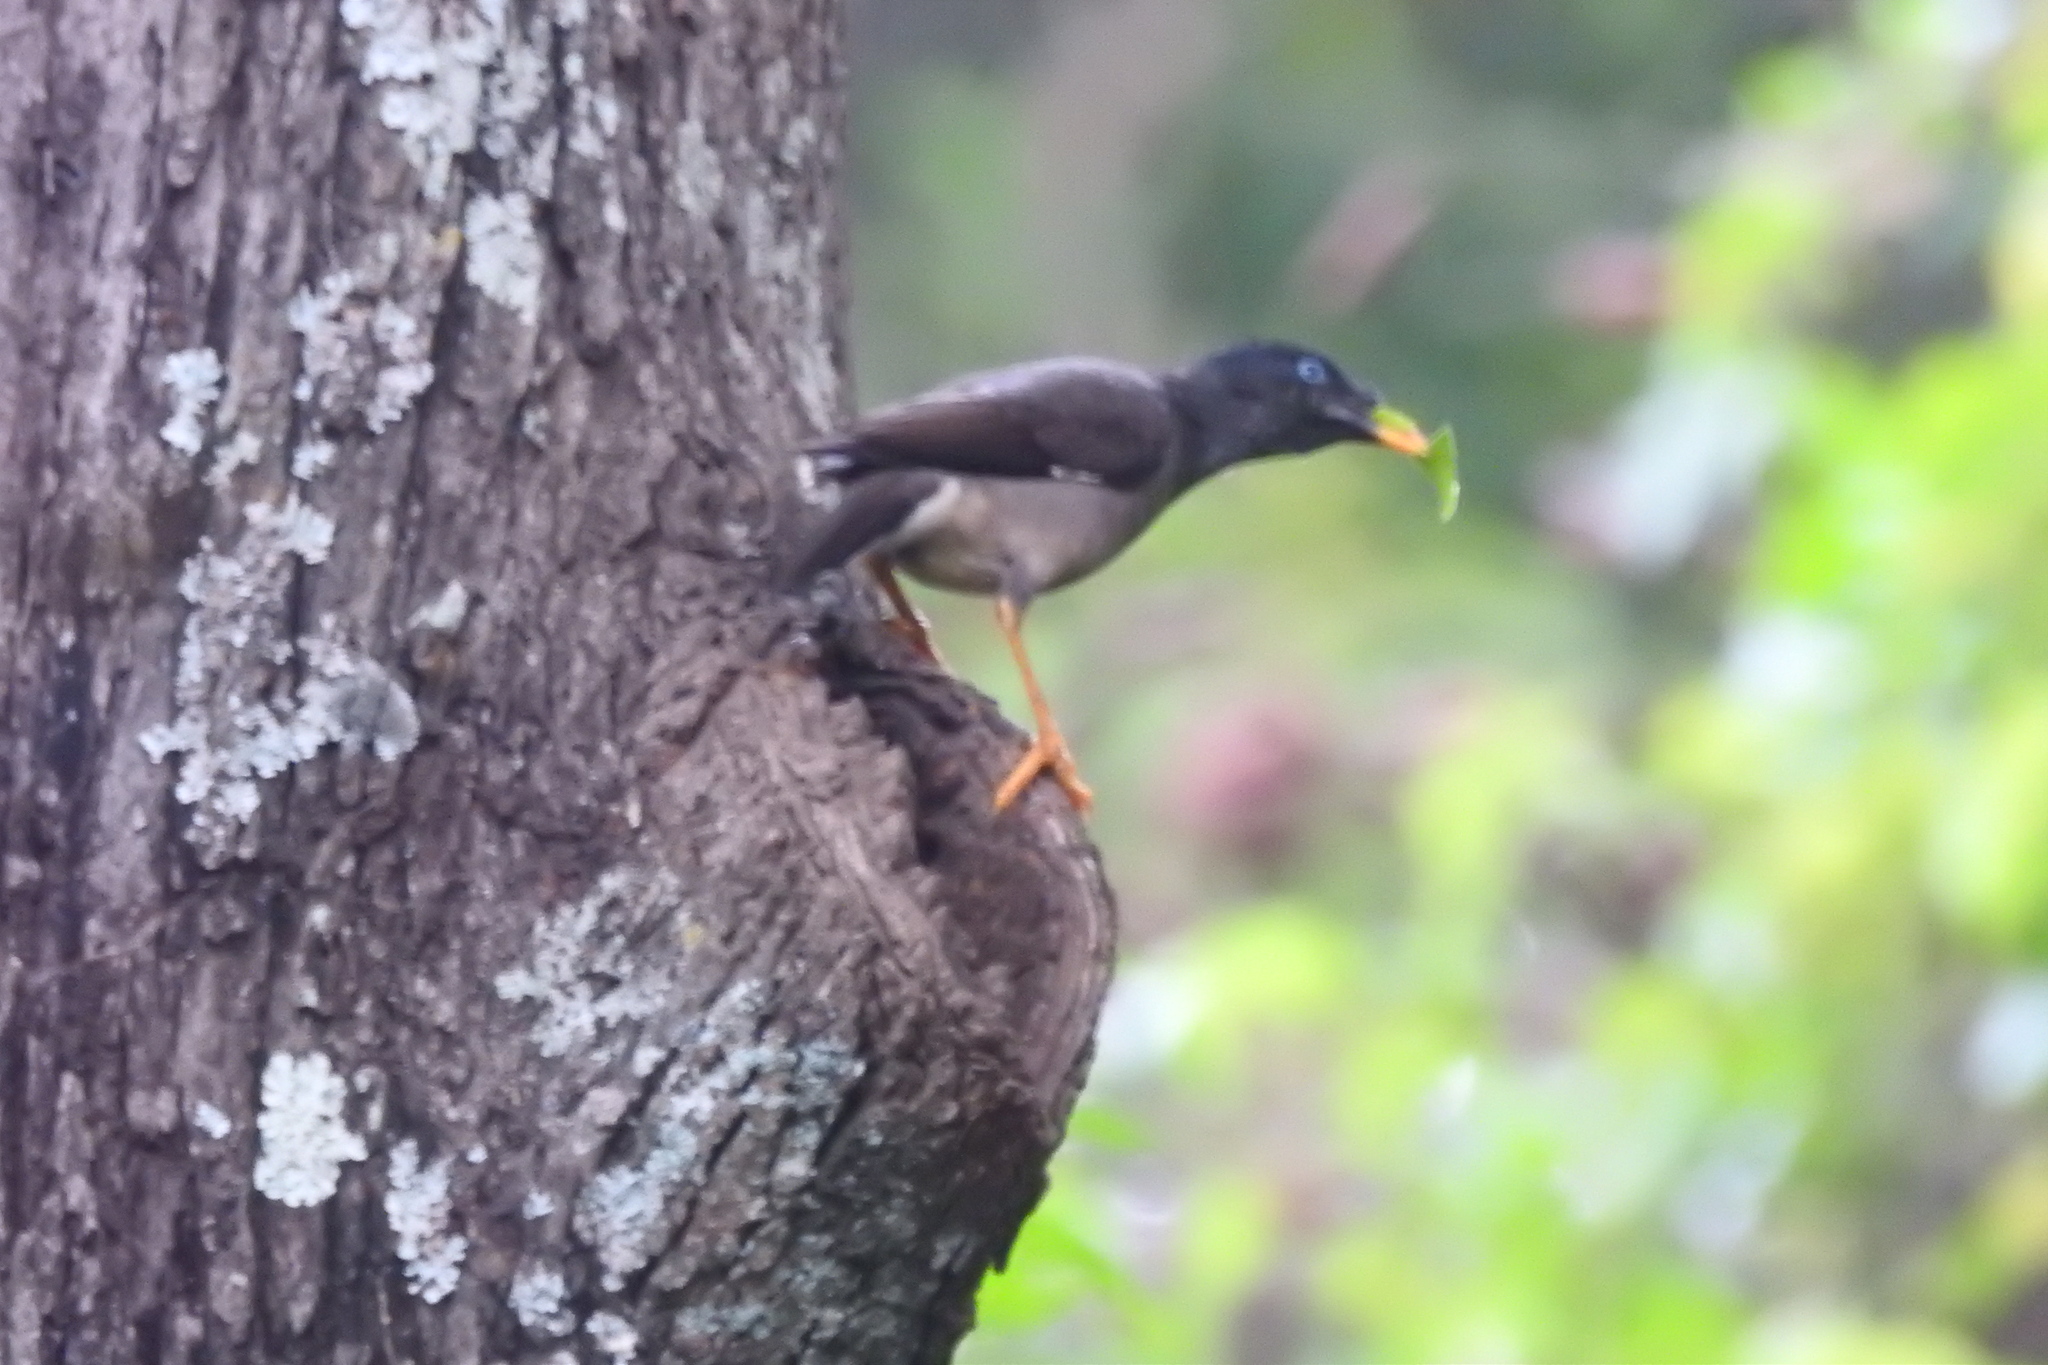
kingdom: Animalia
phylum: Chordata
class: Aves
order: Passeriformes
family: Sturnidae
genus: Acridotheres
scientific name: Acridotheres fuscus
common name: Jungle myna
